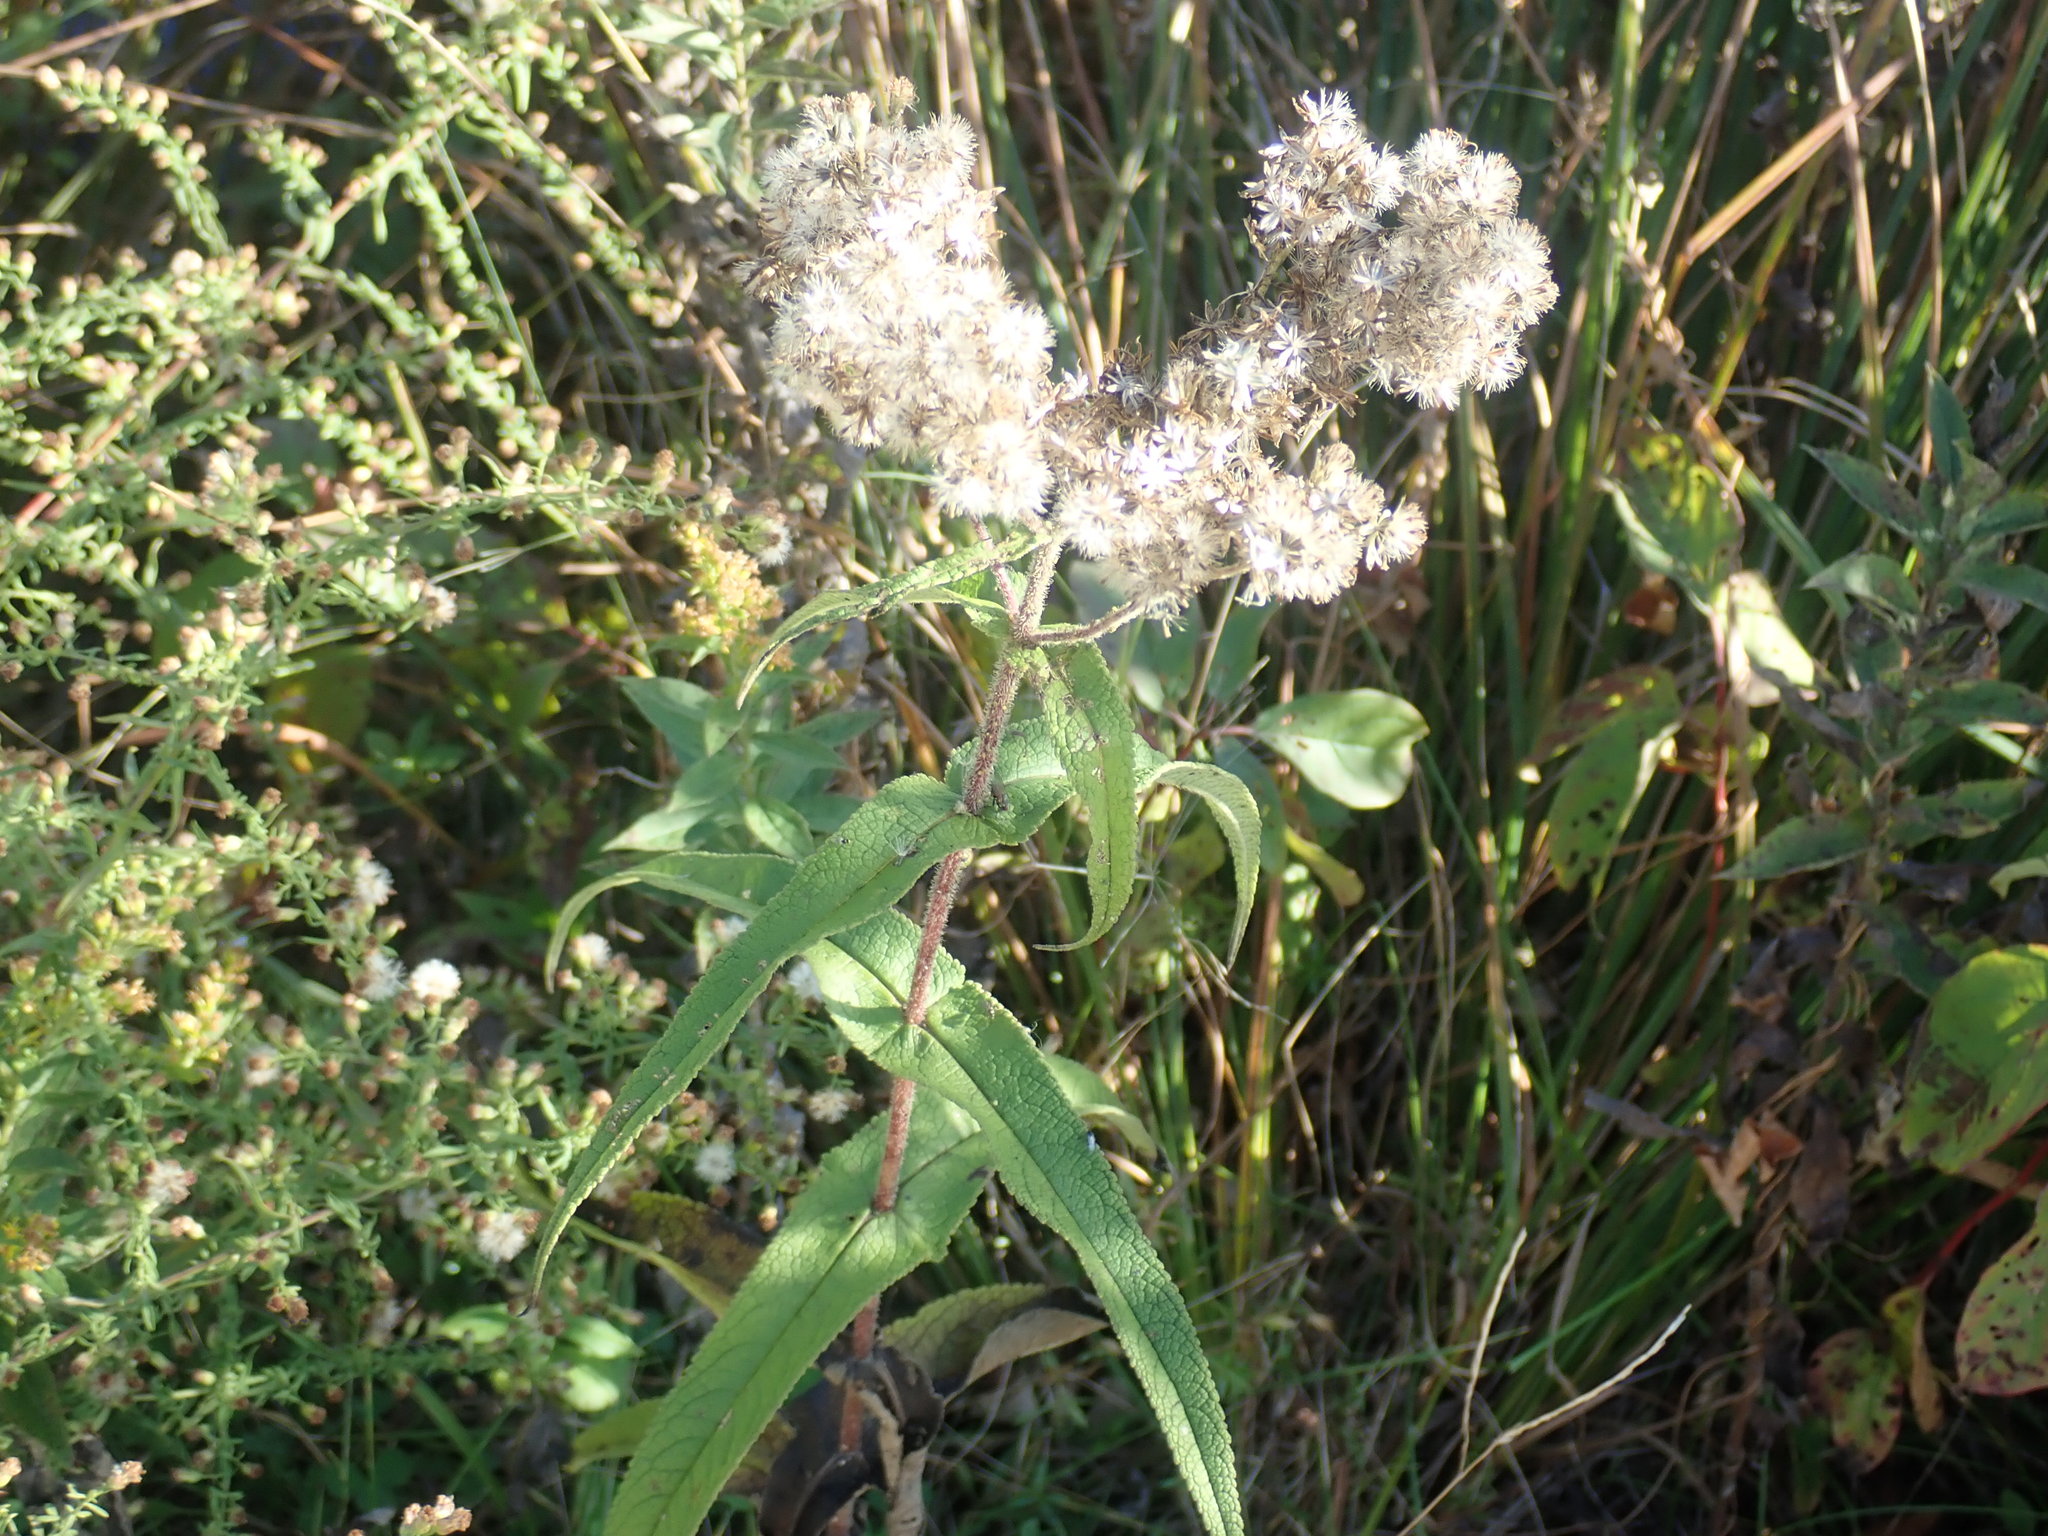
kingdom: Plantae
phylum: Tracheophyta
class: Magnoliopsida
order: Asterales
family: Asteraceae
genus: Eupatorium
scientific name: Eupatorium perfoliatum
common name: Boneset
